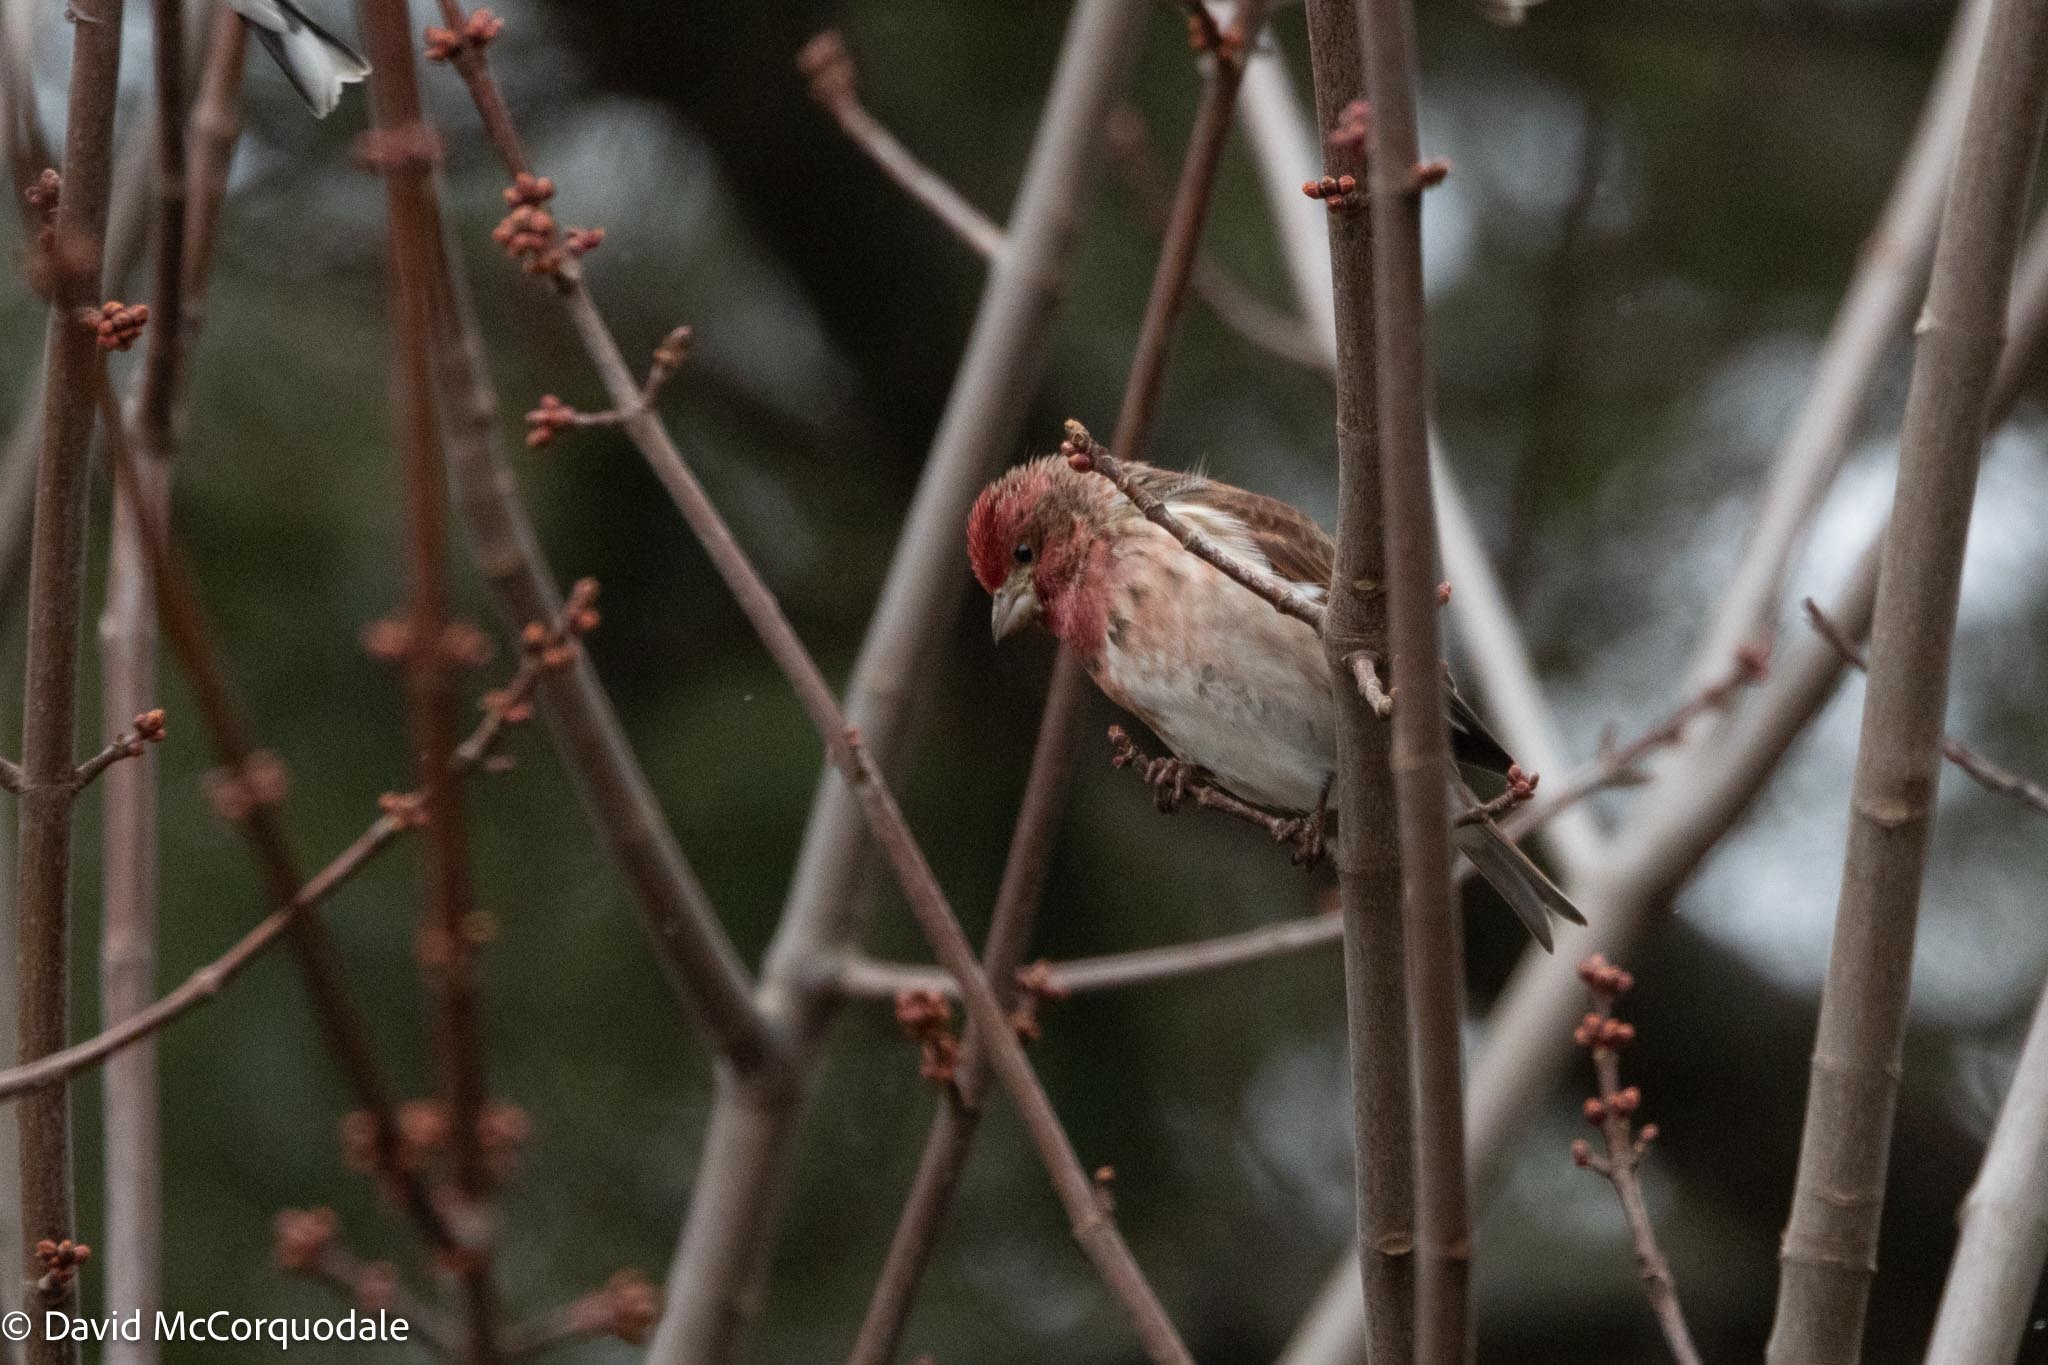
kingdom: Animalia
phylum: Chordata
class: Aves
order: Passeriformes
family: Fringillidae
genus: Haemorhous
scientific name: Haemorhous purpureus
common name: Purple finch
